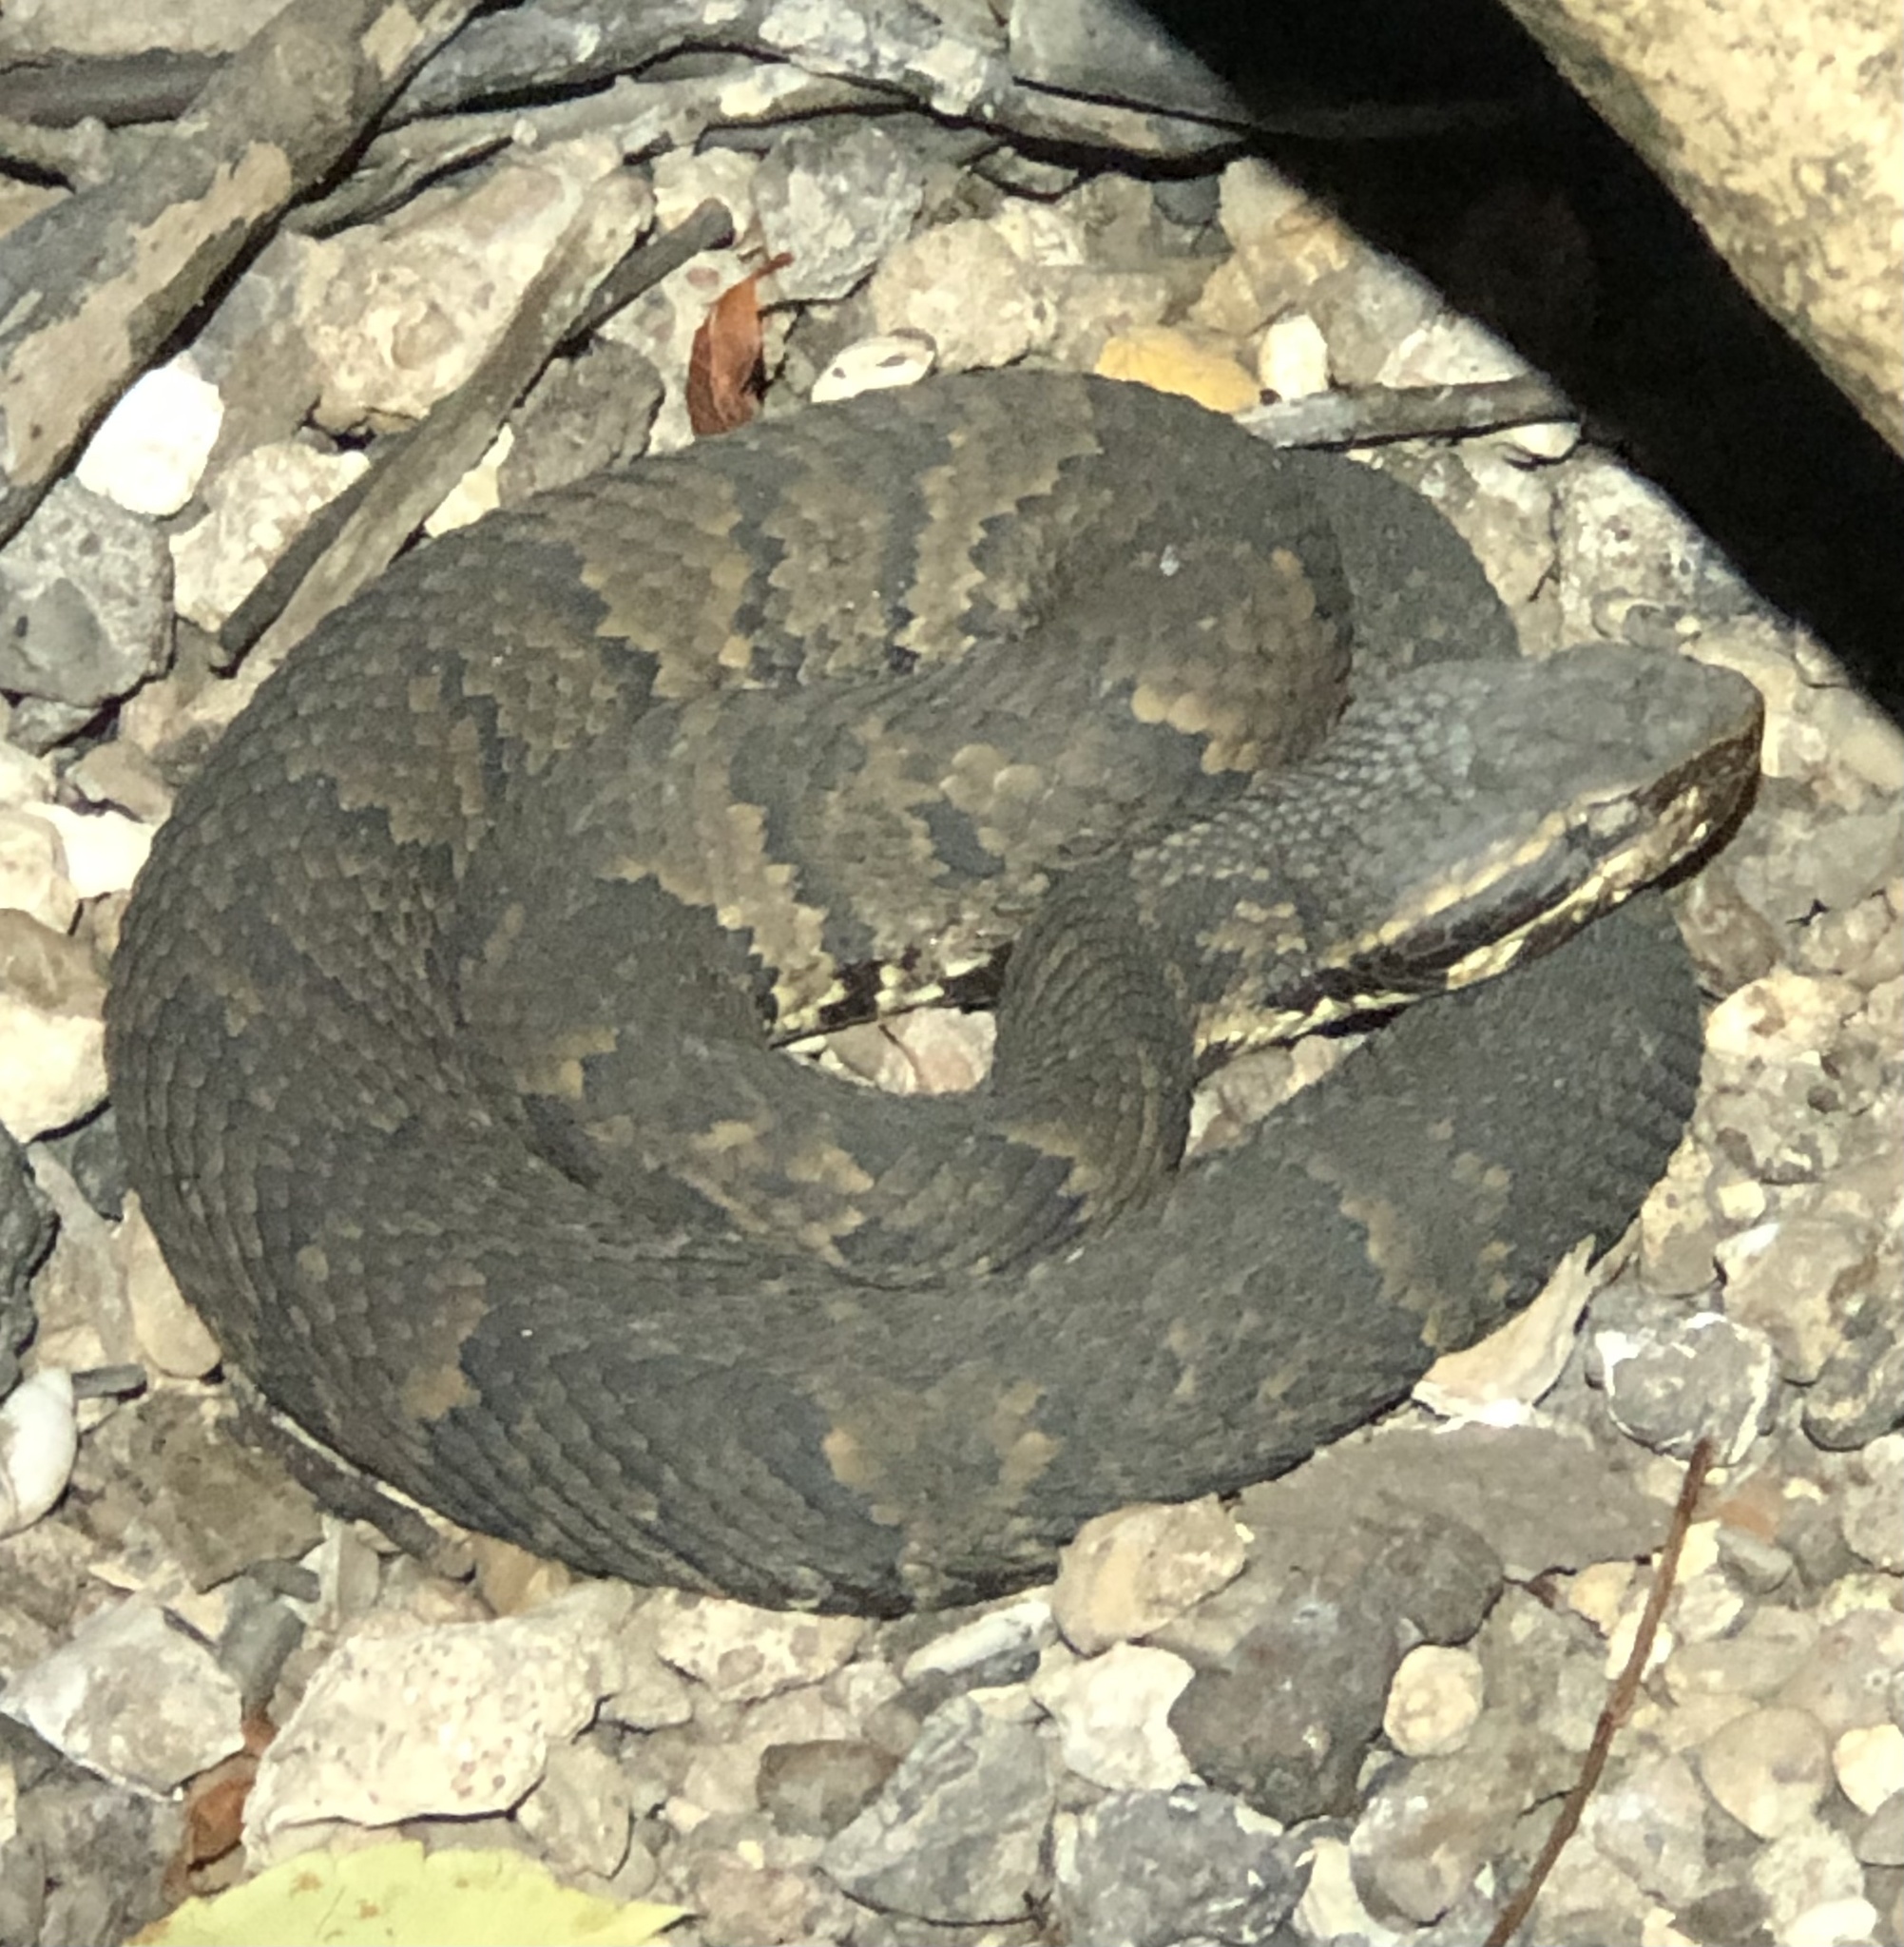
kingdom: Animalia
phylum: Chordata
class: Squamata
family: Viperidae
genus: Agkistrodon
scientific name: Agkistrodon piscivorus
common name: Cottonmouth
